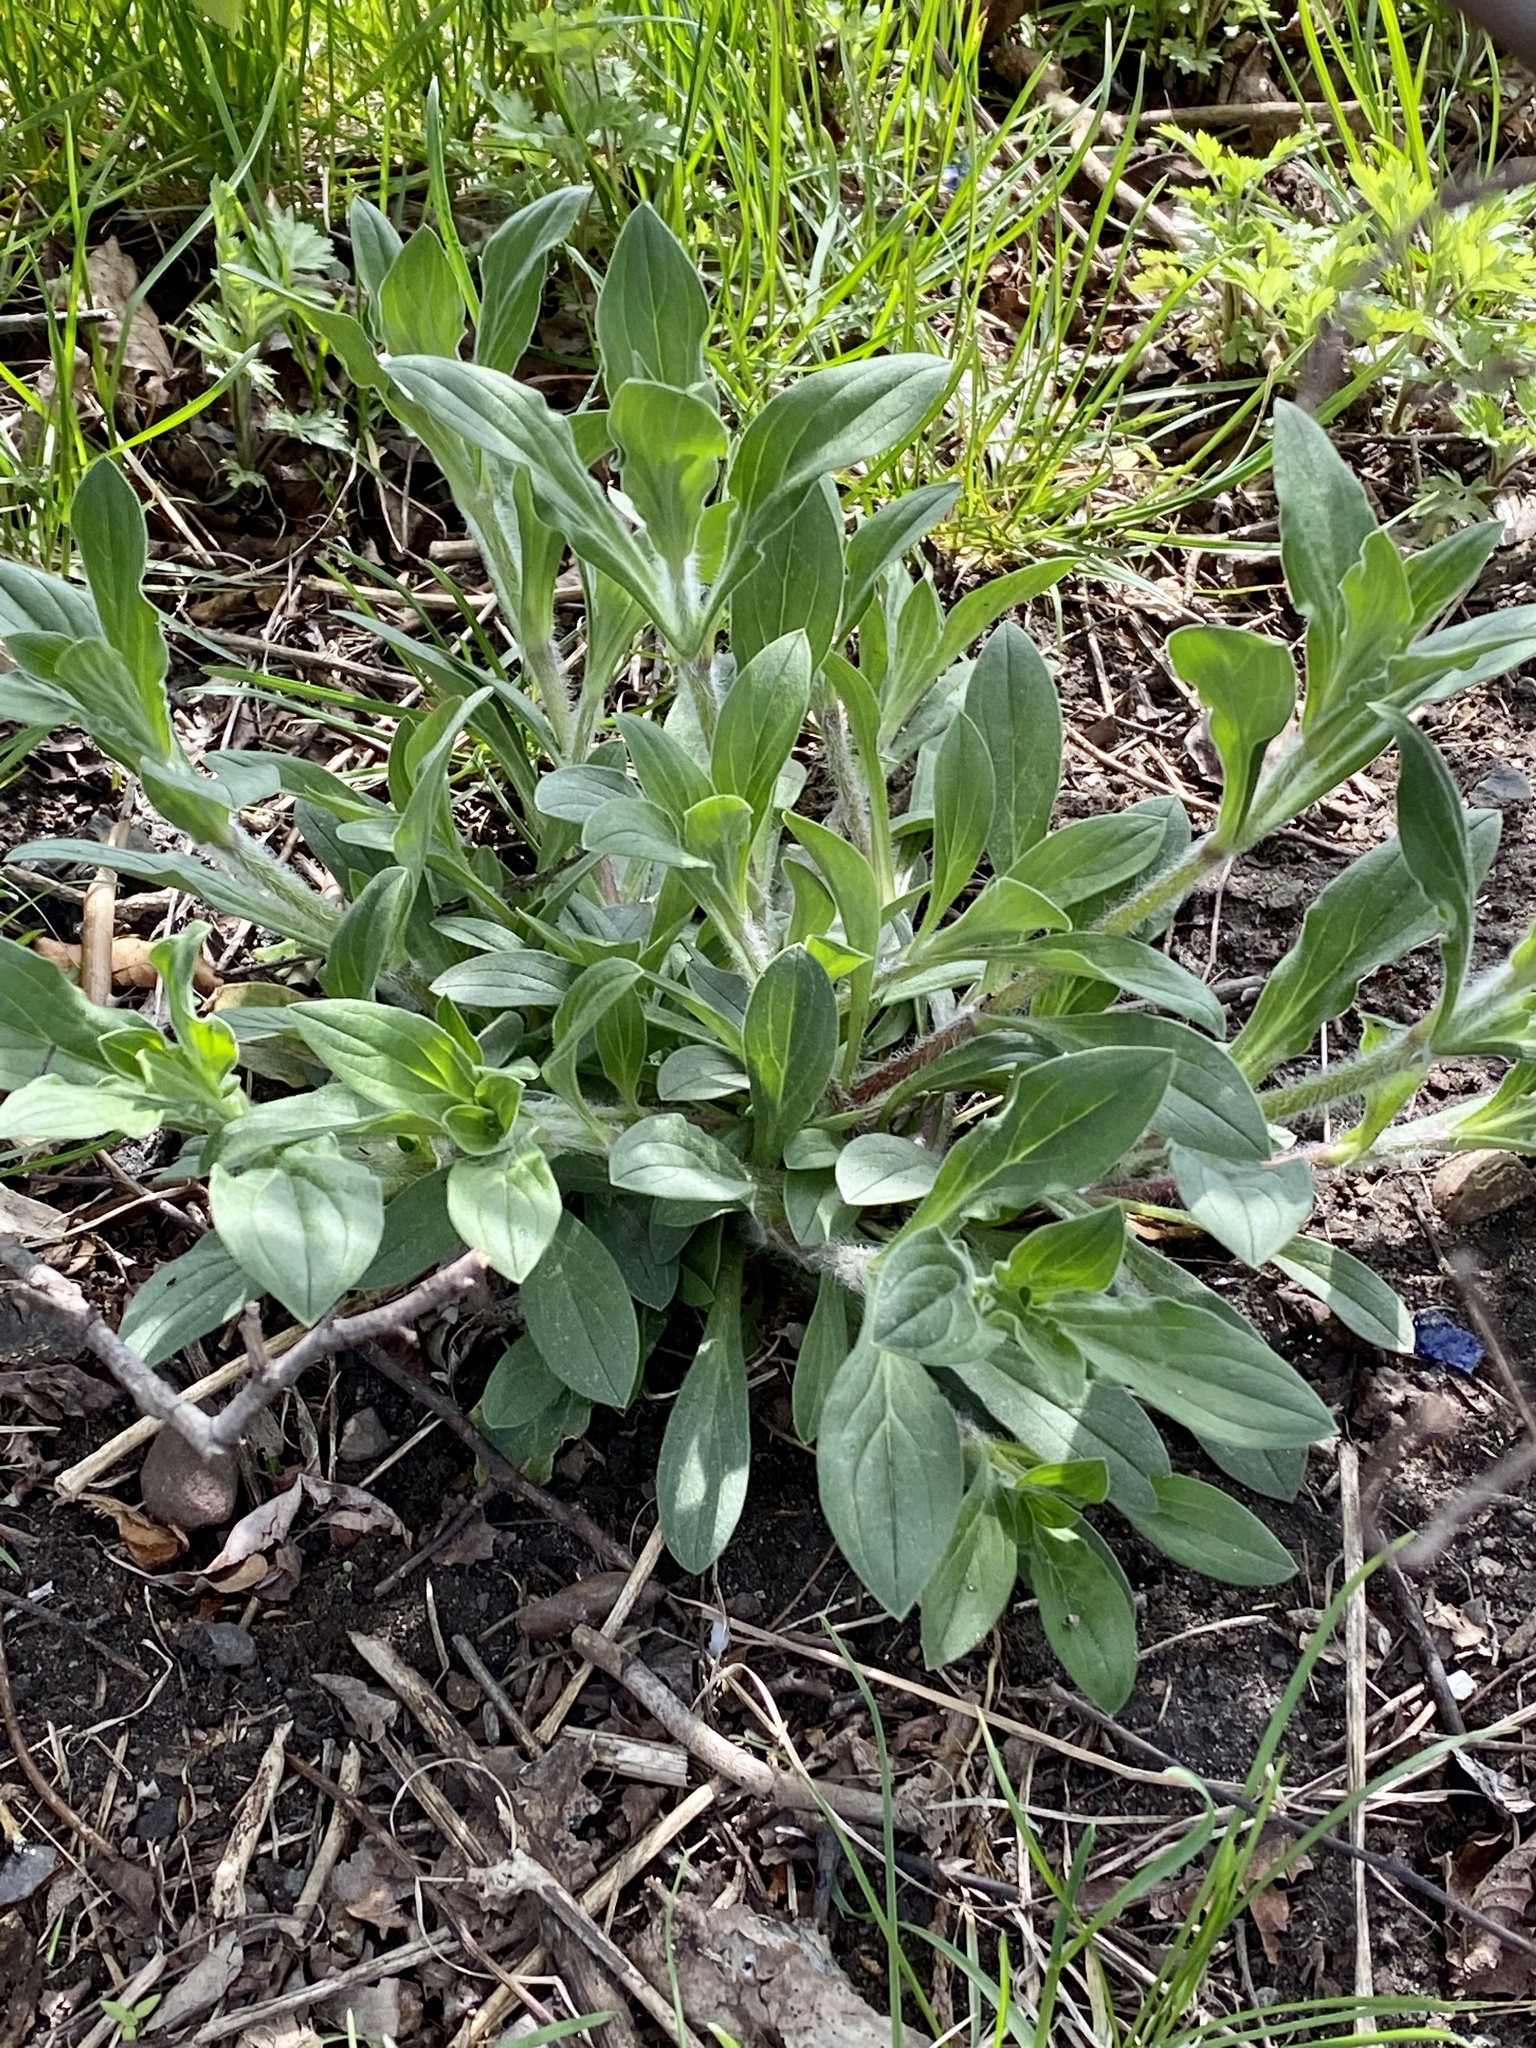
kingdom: Plantae
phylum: Tracheophyta
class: Magnoliopsida
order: Caryophyllales
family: Caryophyllaceae
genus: Silene
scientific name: Silene latifolia
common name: White campion
